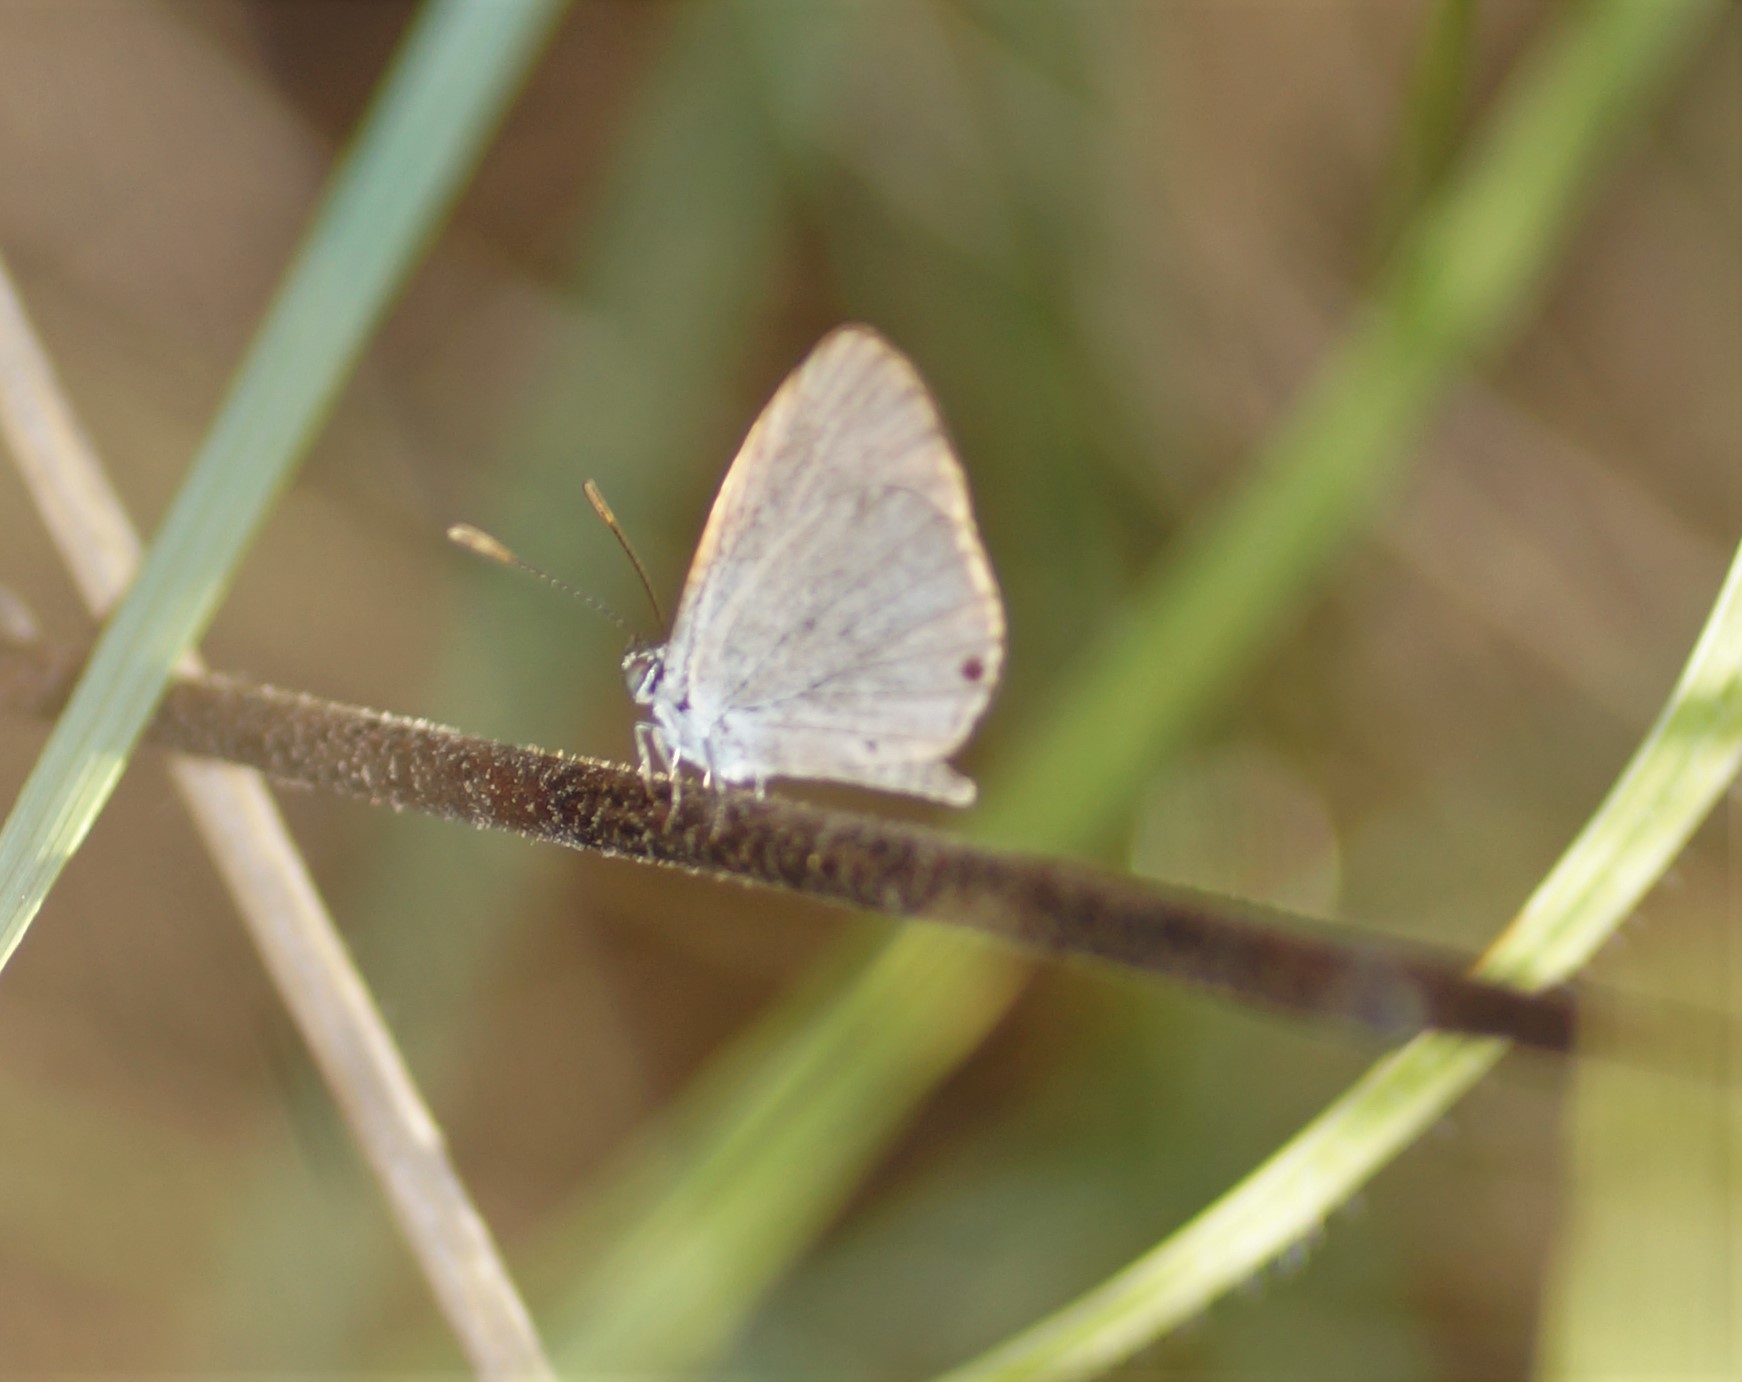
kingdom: Animalia
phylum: Arthropoda
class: Insecta
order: Lepidoptera
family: Lycaenidae
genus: Cupido
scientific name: Cupido nisa
